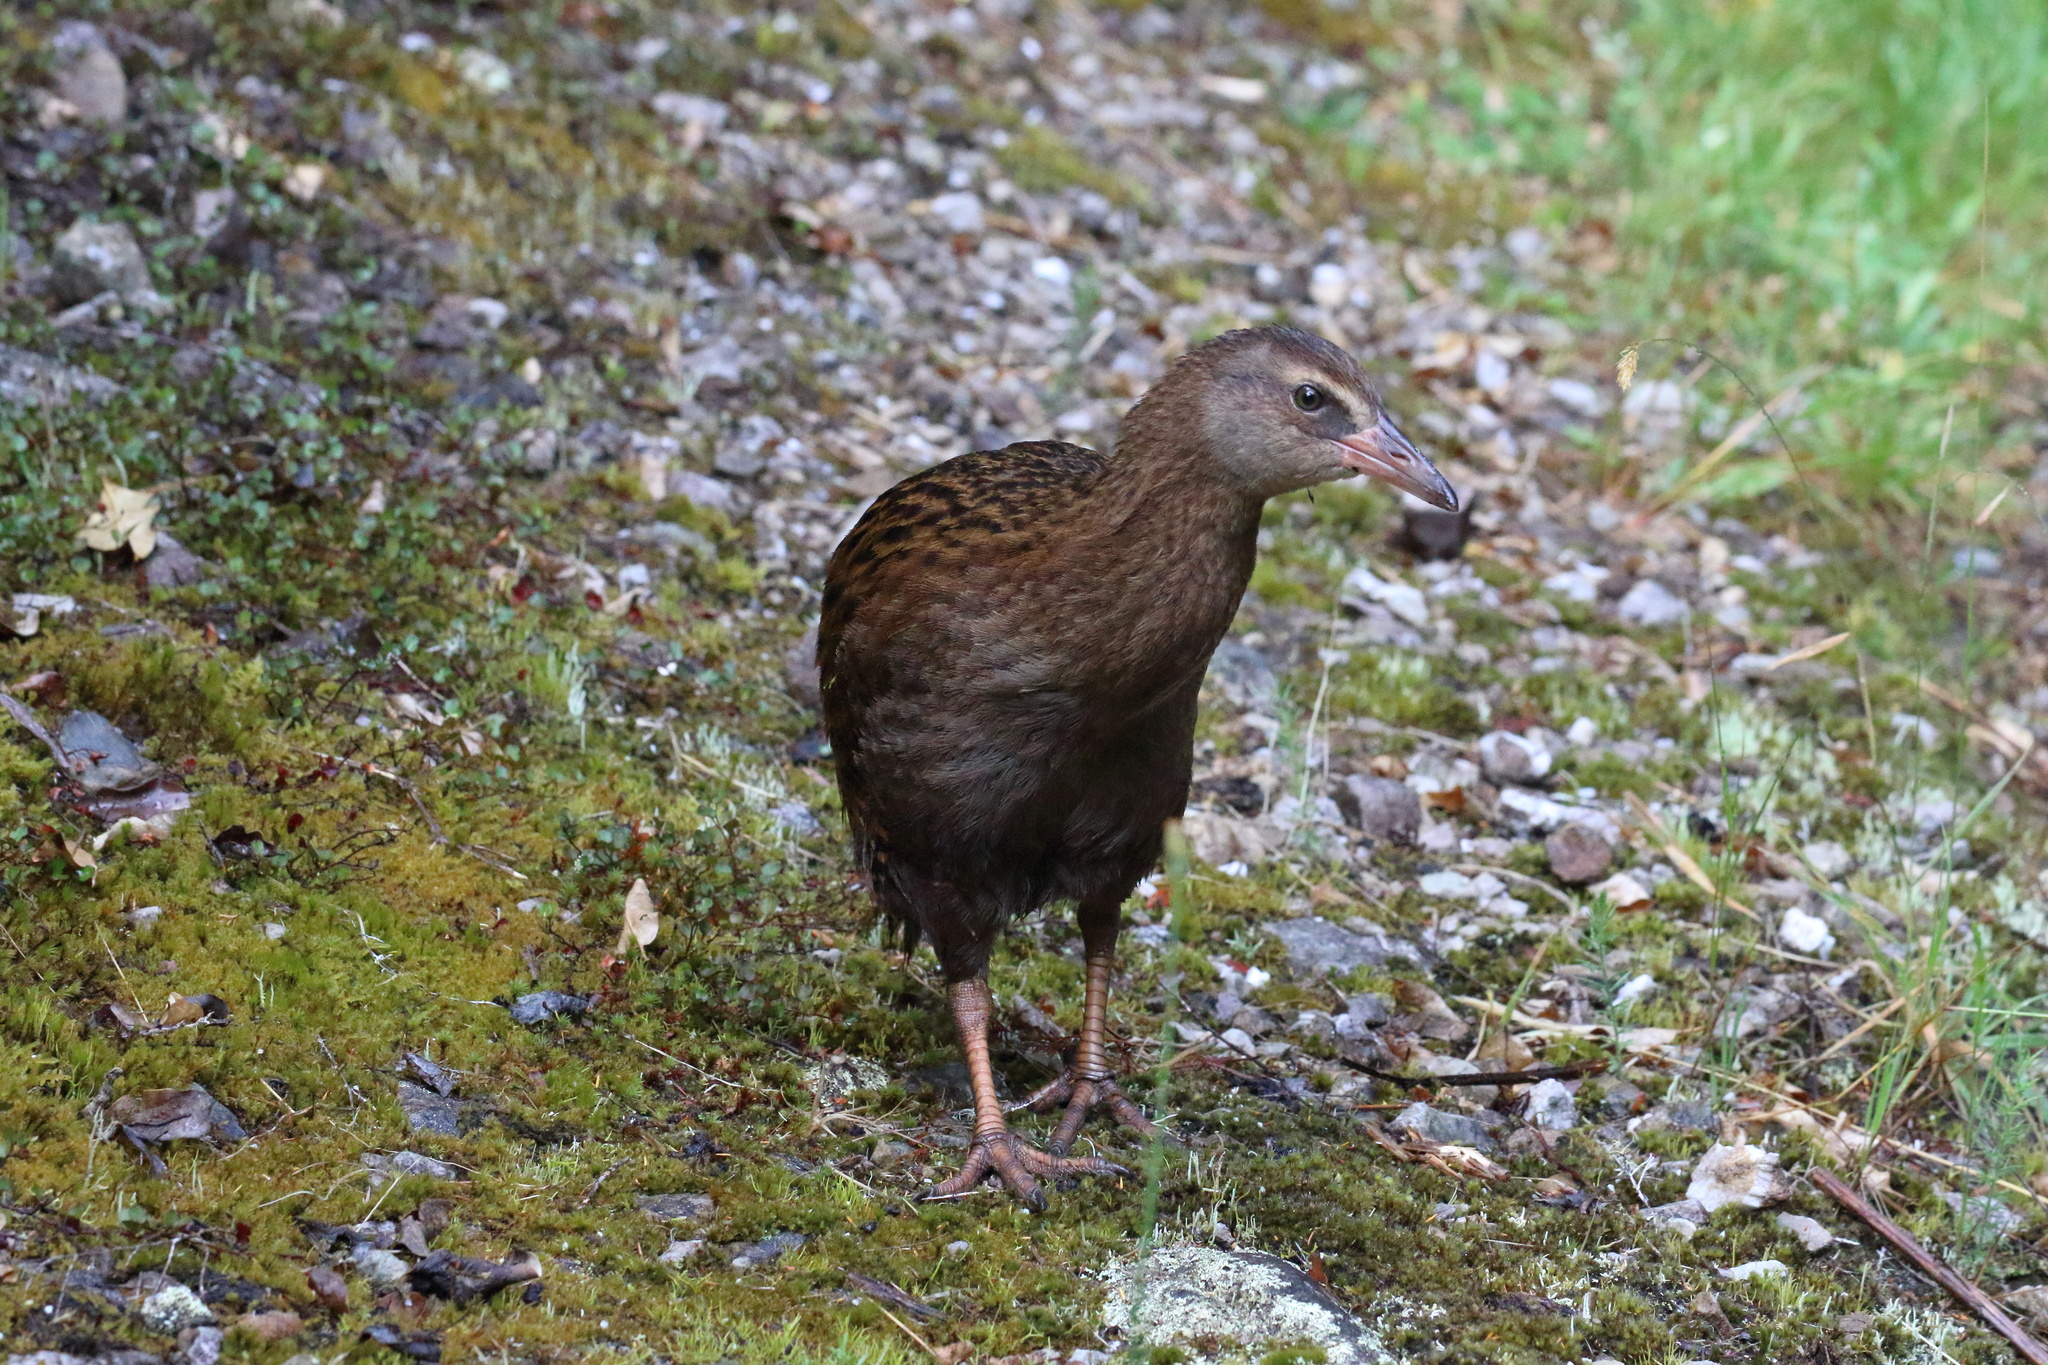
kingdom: Animalia
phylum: Chordata
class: Aves
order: Gruiformes
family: Rallidae
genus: Gallirallus
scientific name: Gallirallus australis
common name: Weka
